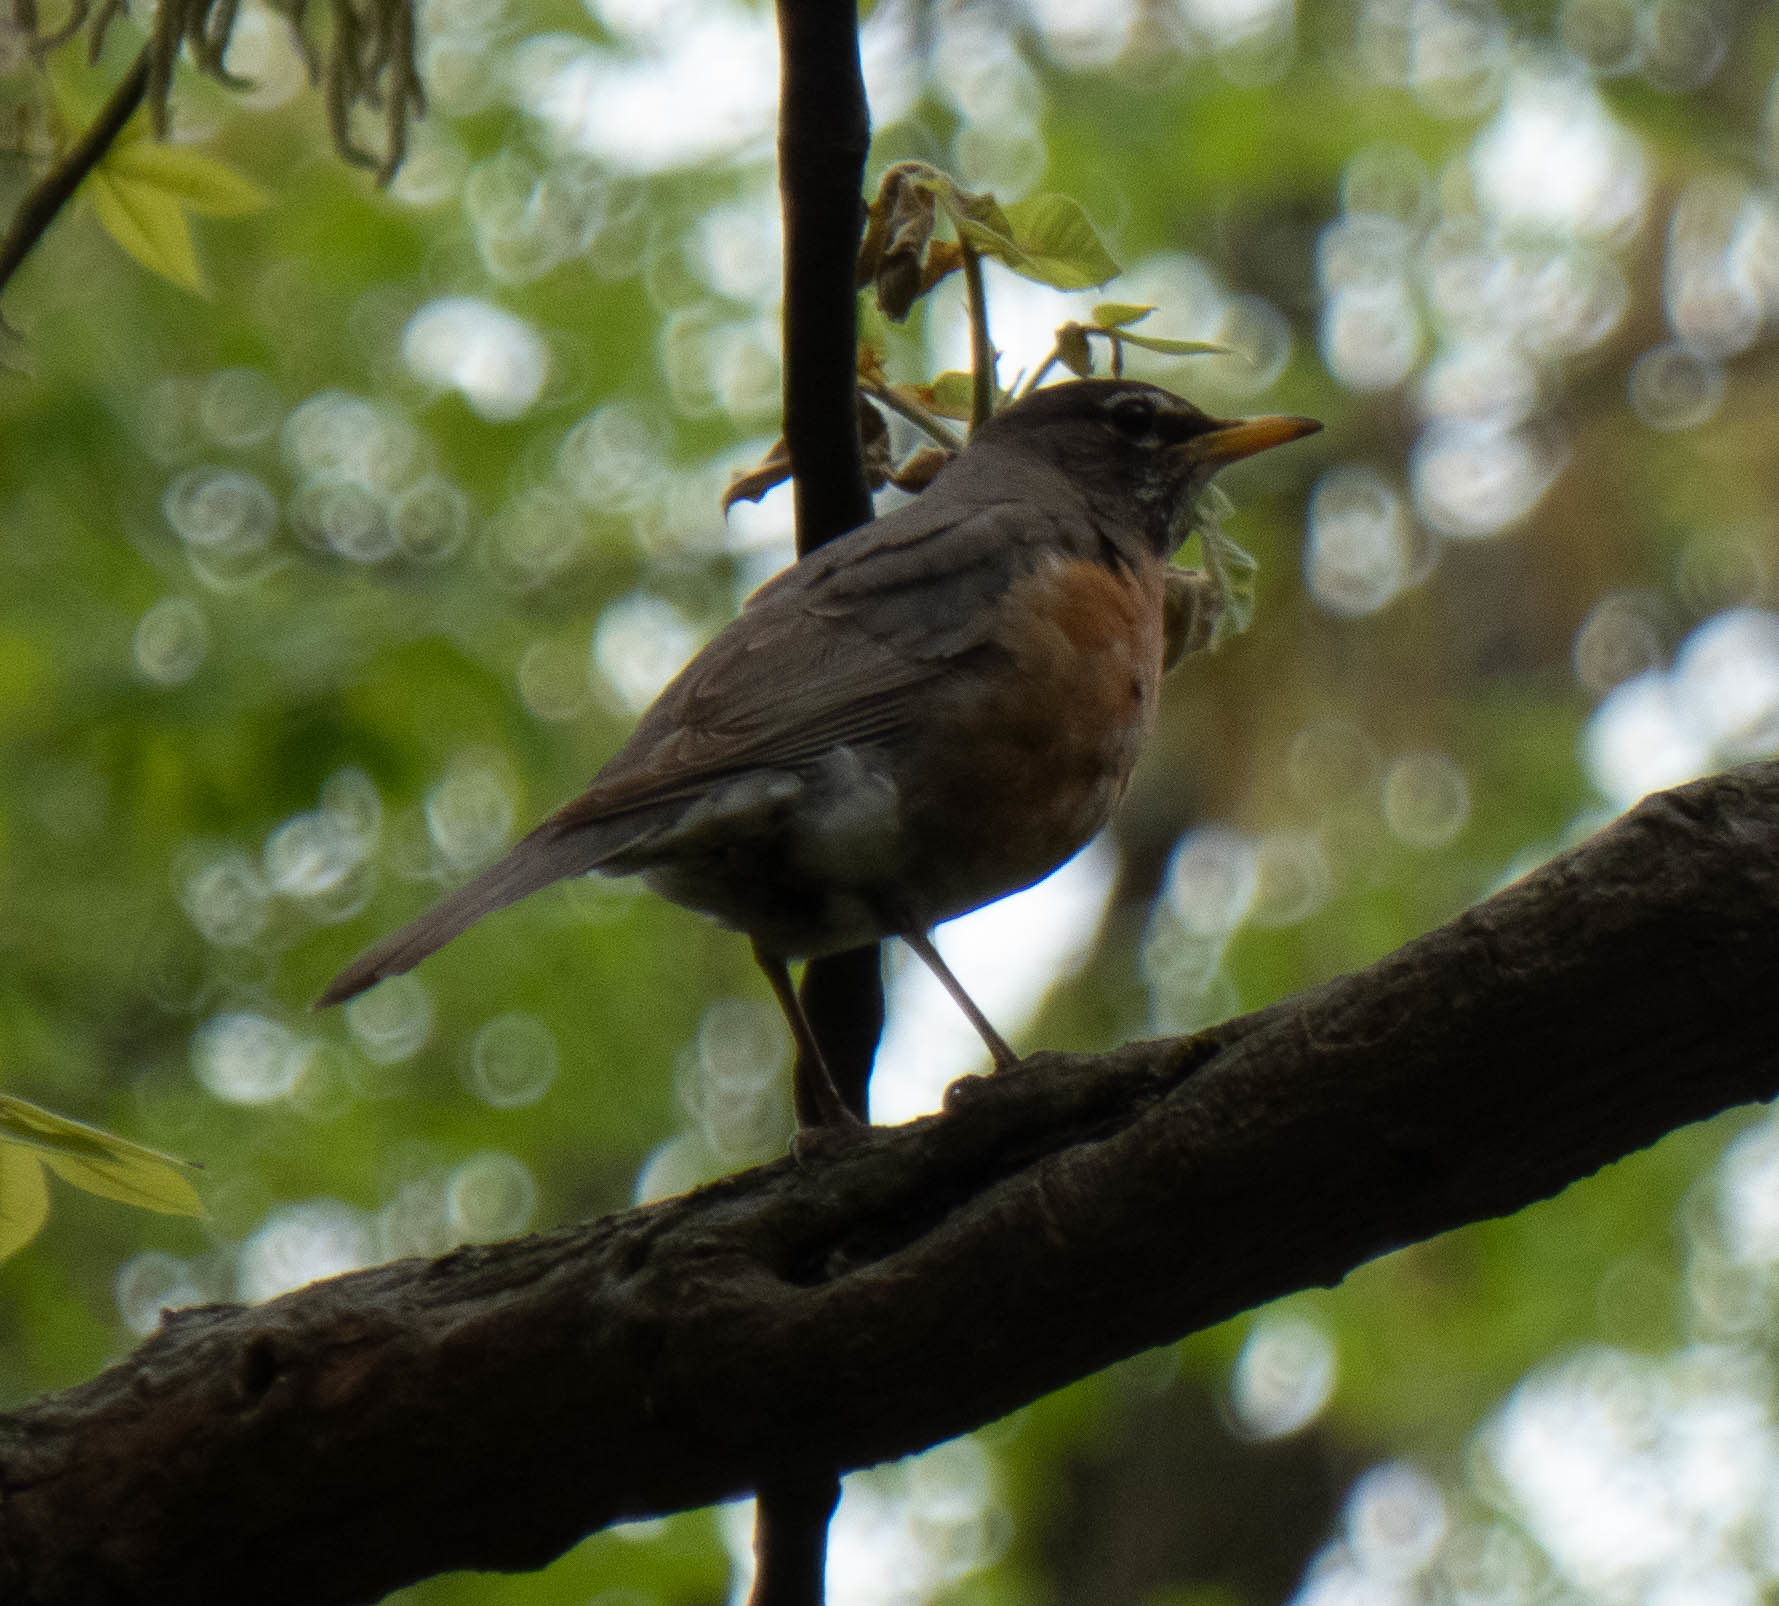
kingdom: Animalia
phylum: Chordata
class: Aves
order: Passeriformes
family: Turdidae
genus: Turdus
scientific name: Turdus migratorius
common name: American robin
